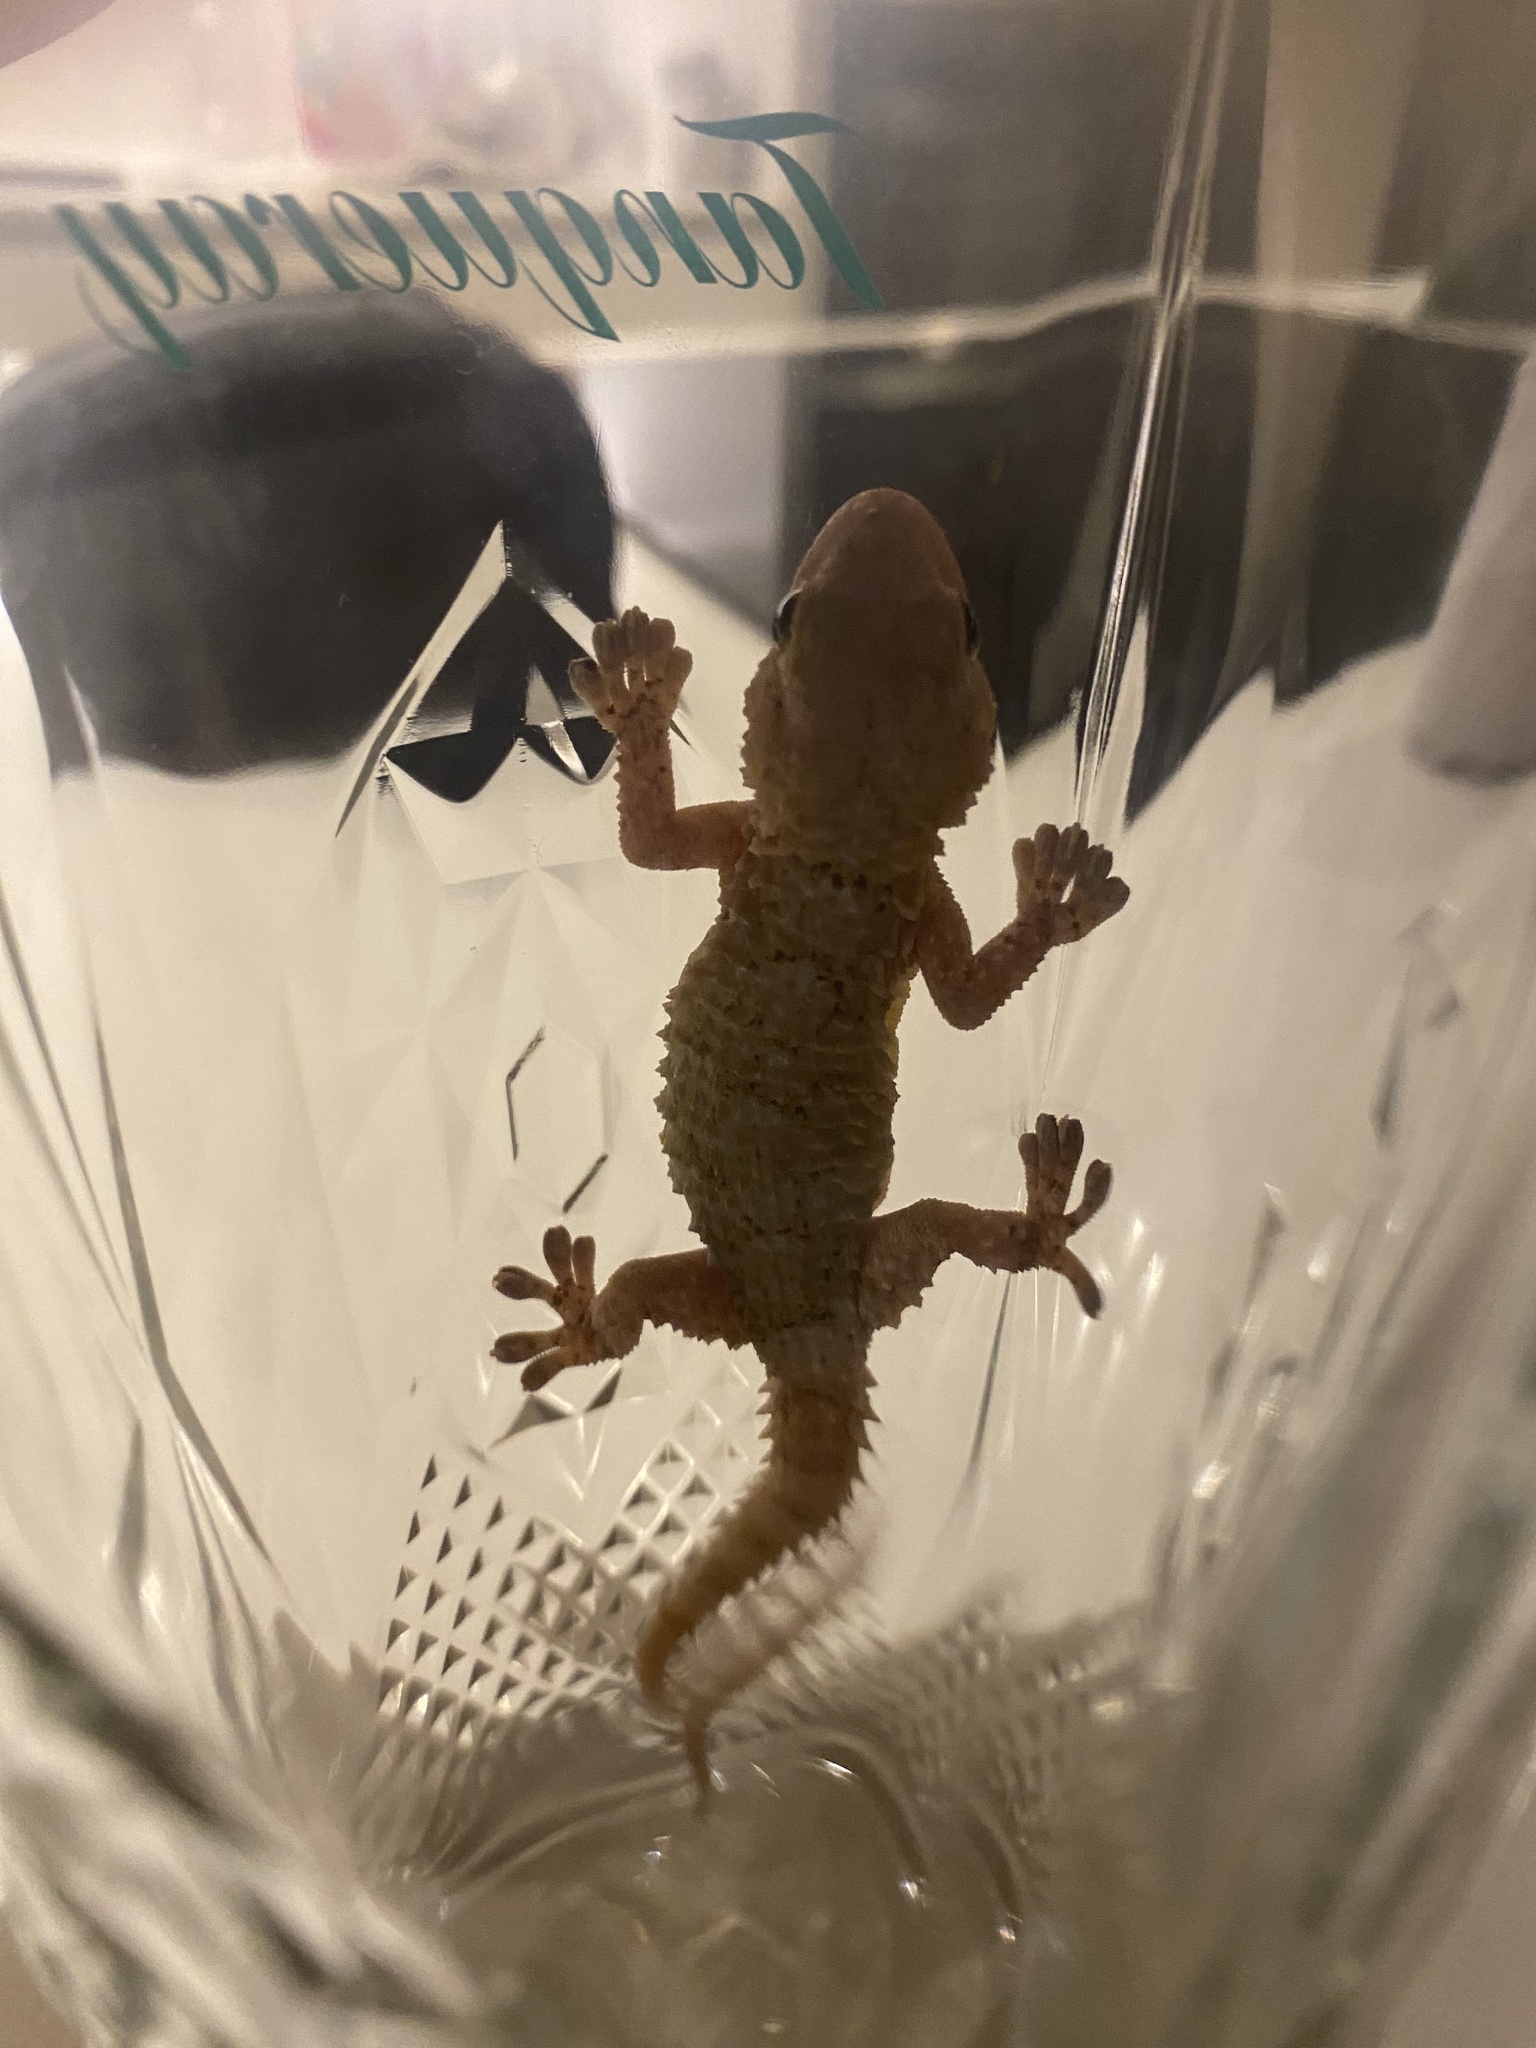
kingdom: Animalia
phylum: Chordata
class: Squamata
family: Phyllodactylidae
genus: Tarentola
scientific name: Tarentola mauritanica
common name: Moorish gecko
